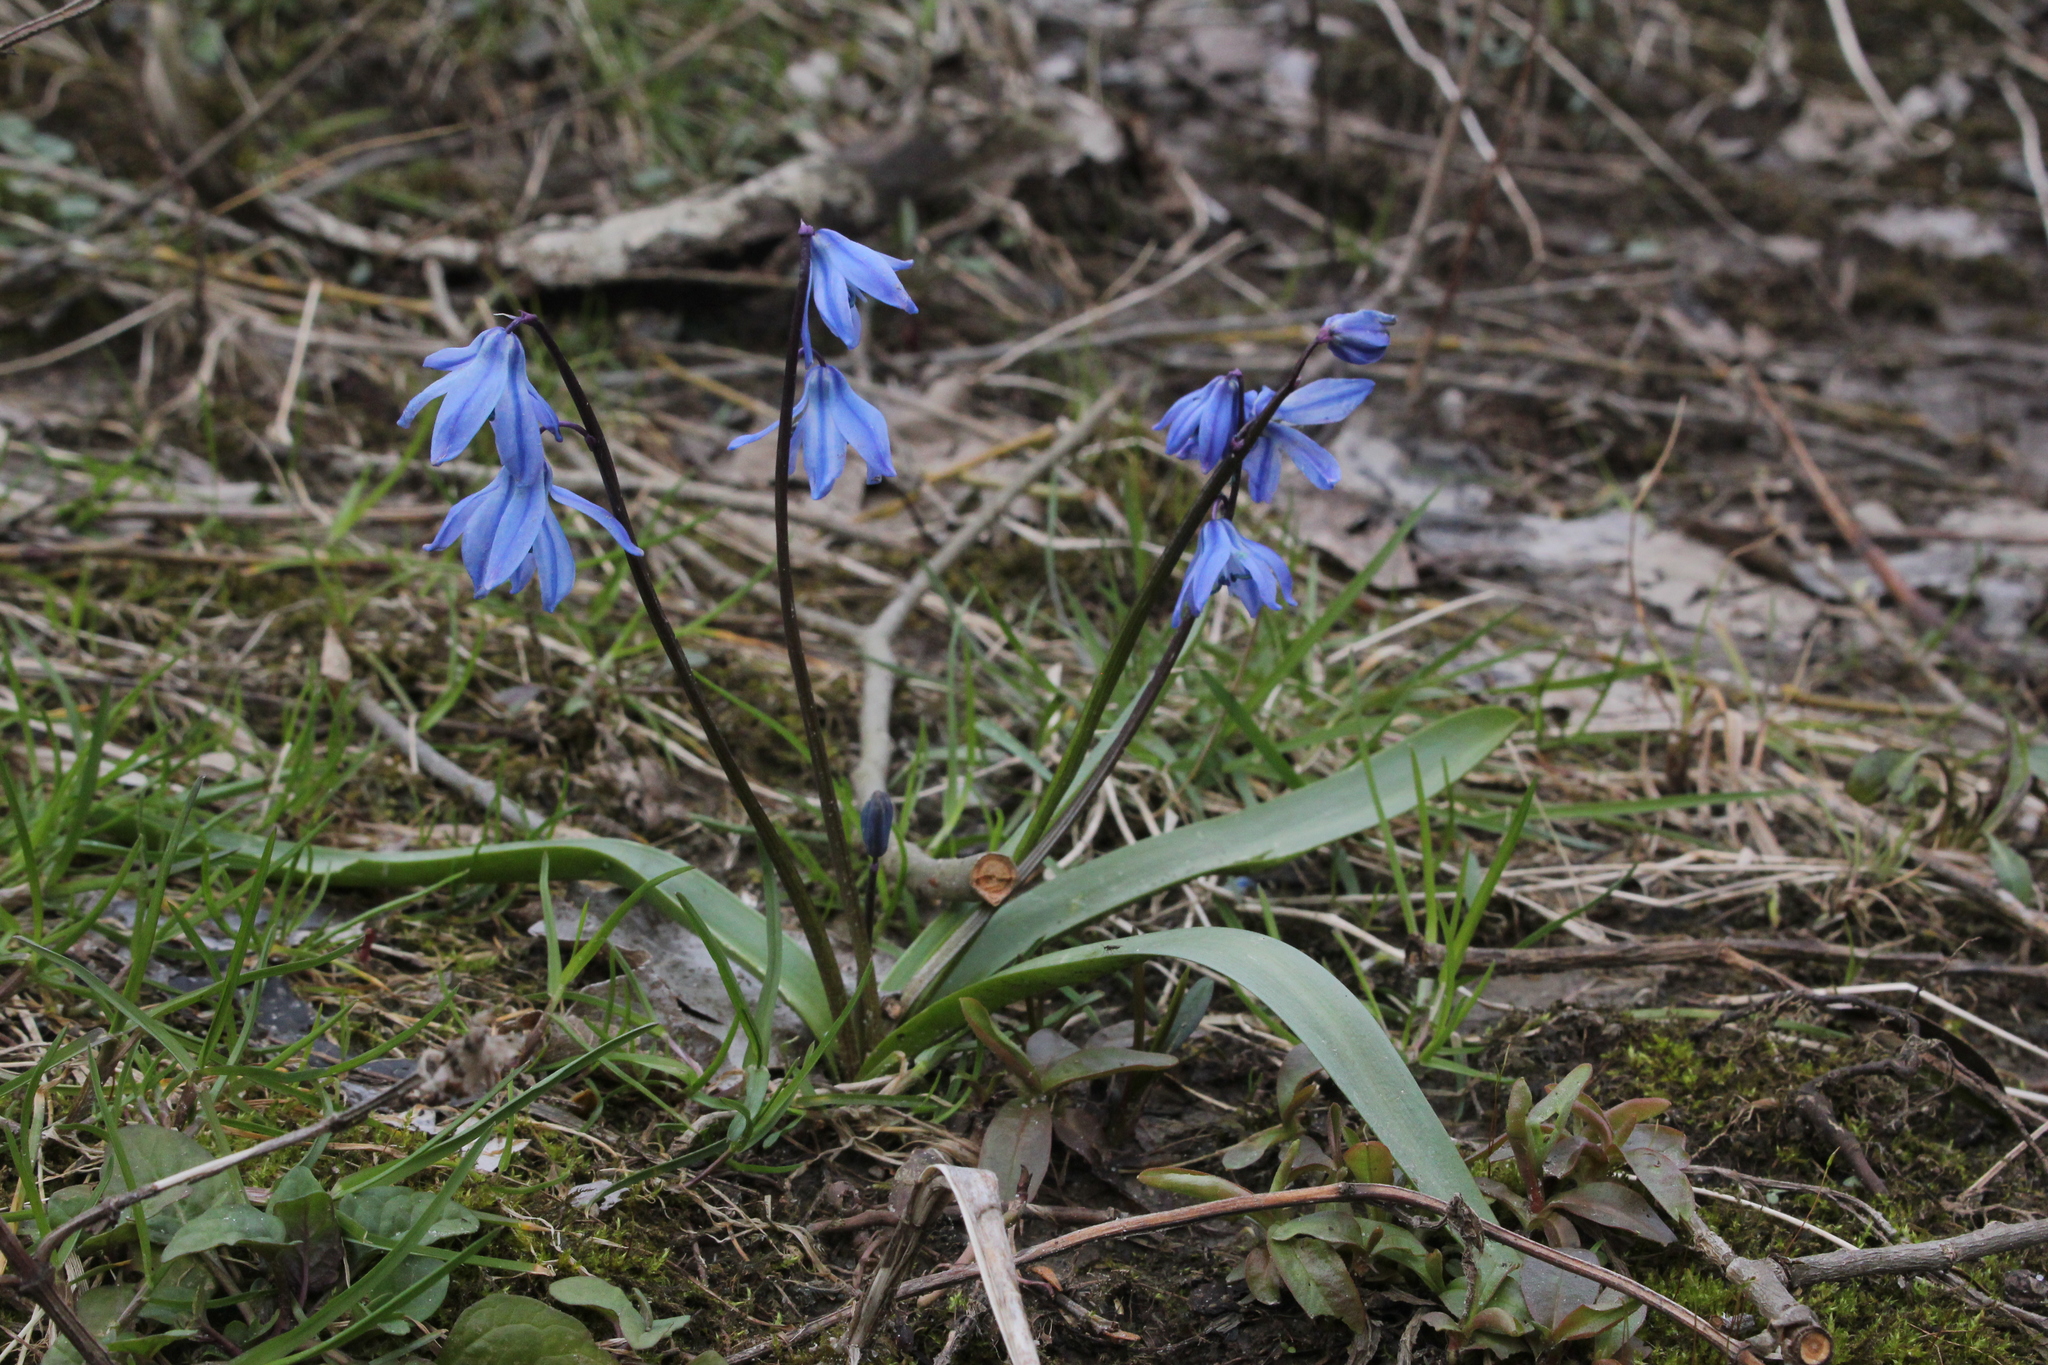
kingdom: Plantae
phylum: Tracheophyta
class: Liliopsida
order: Asparagales
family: Asparagaceae
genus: Scilla
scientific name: Scilla siberica
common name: Siberian squill
